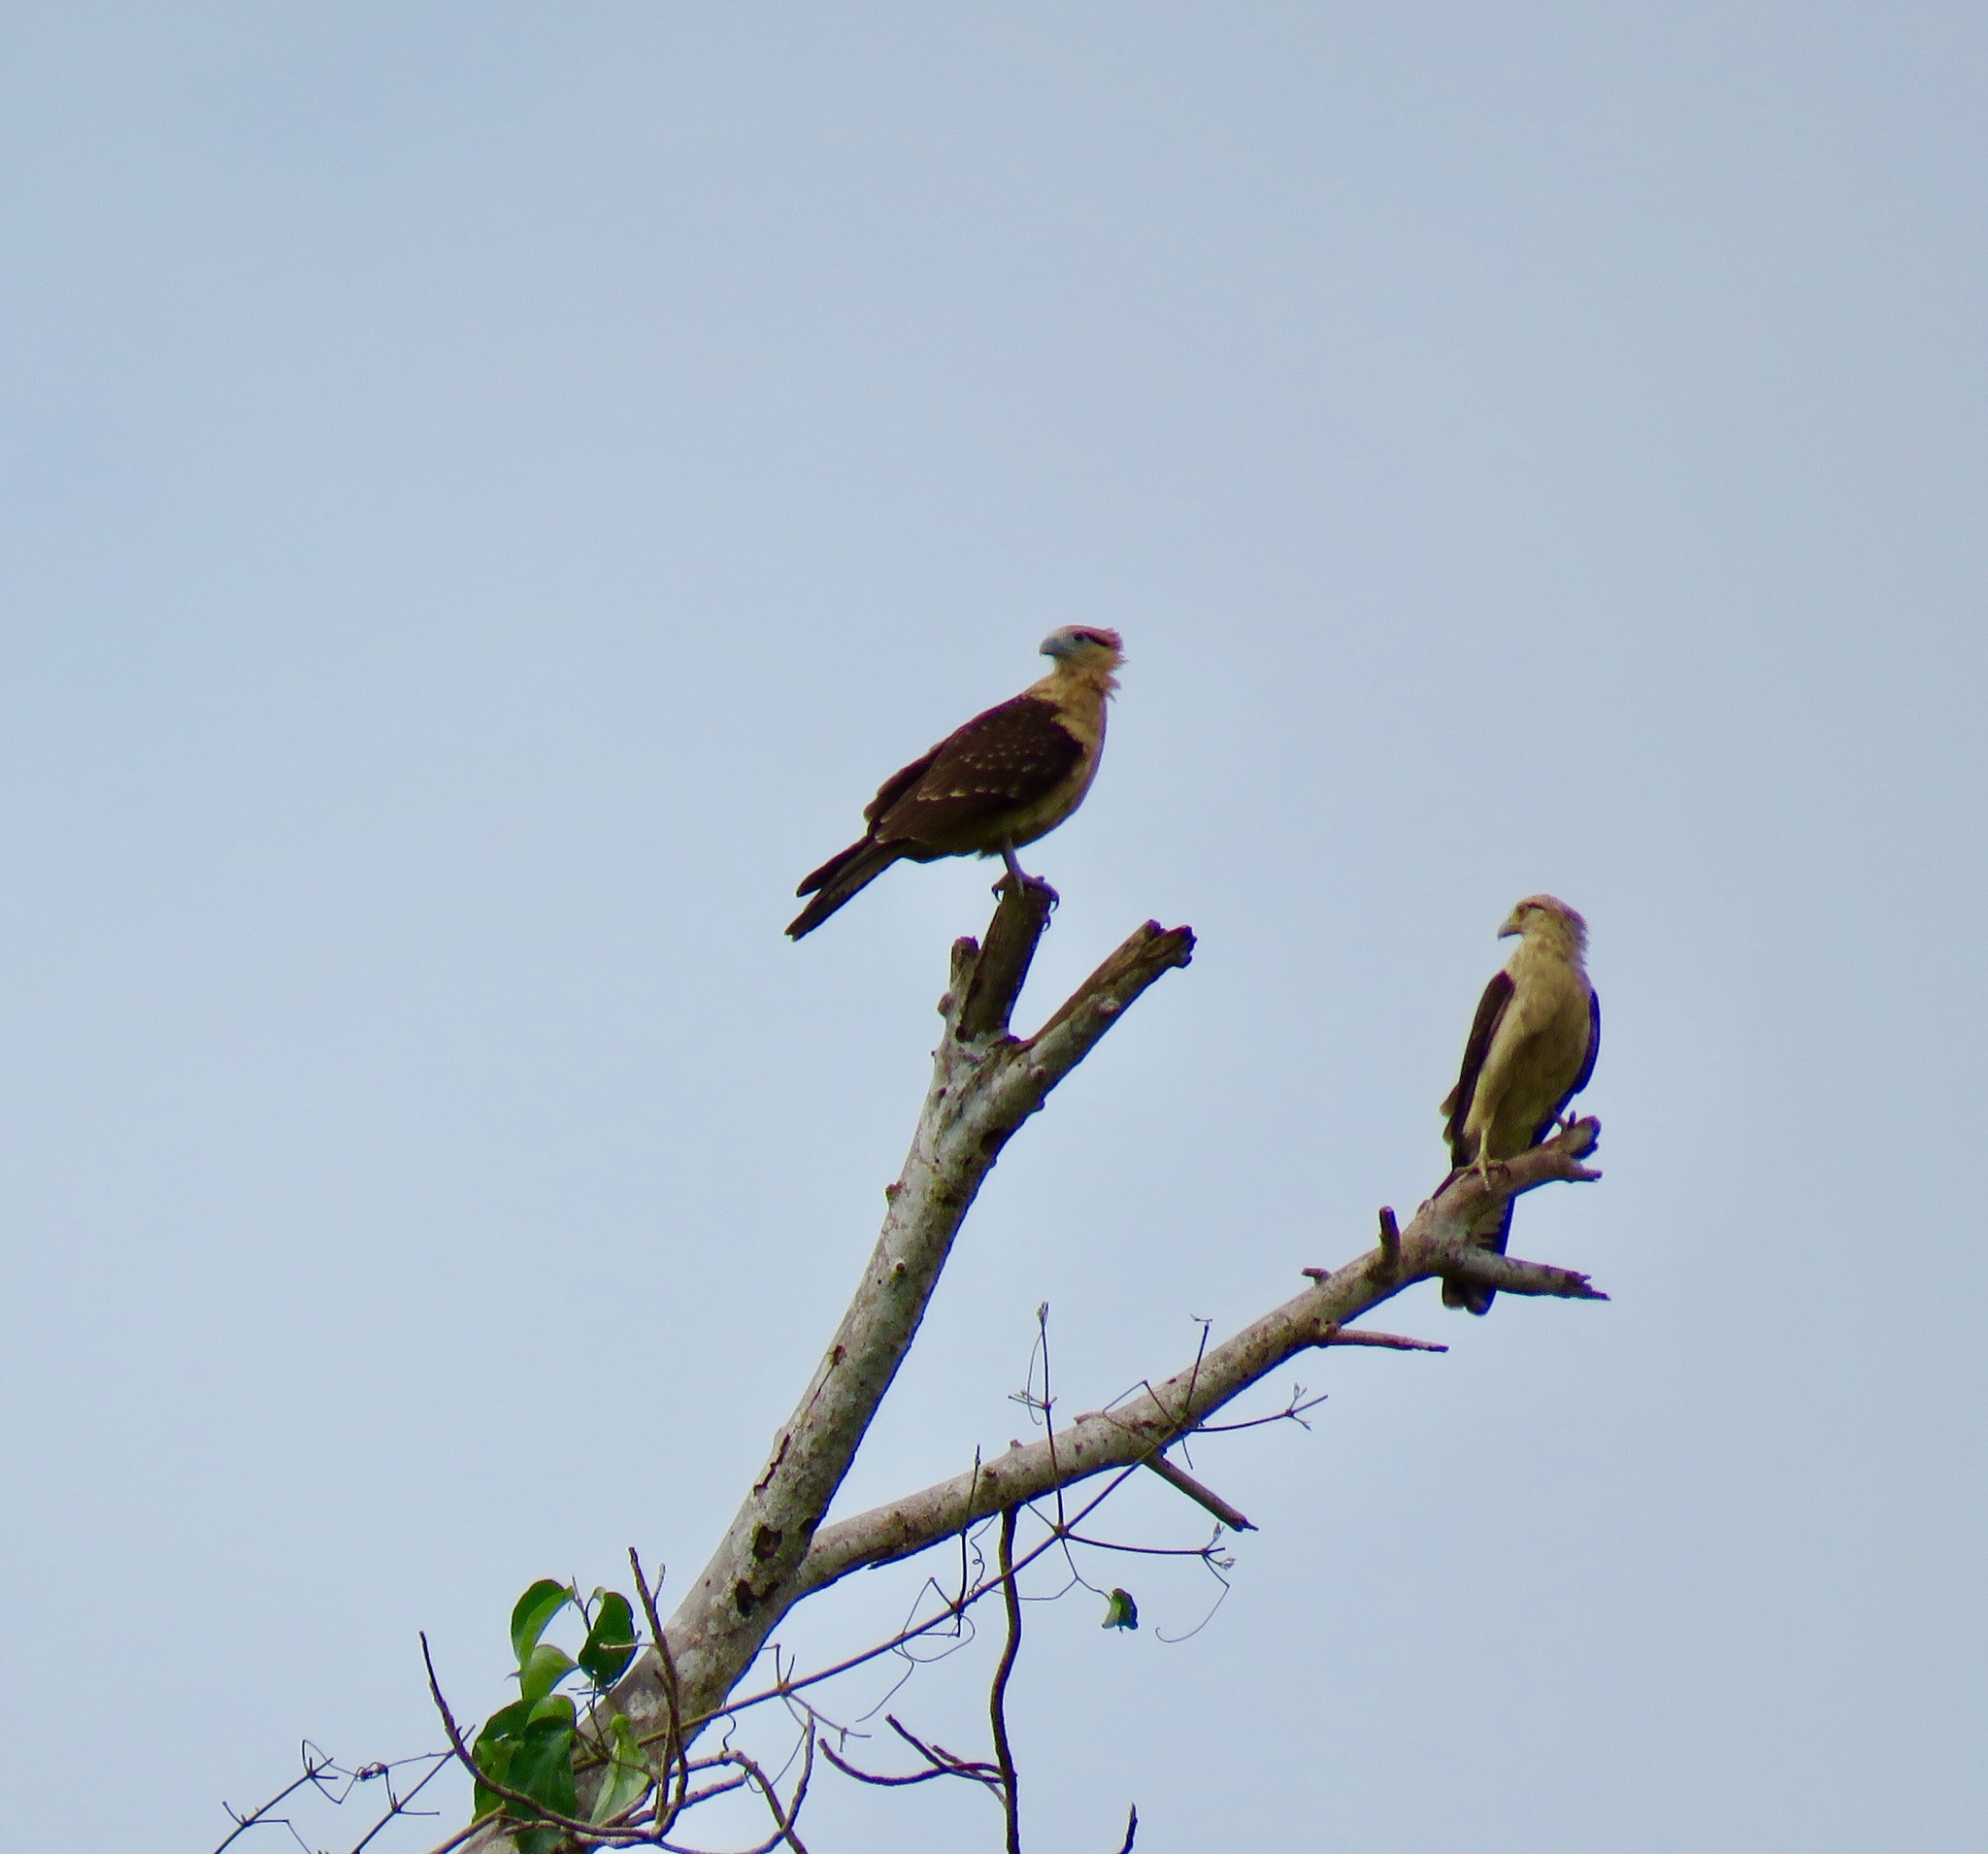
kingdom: Animalia
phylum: Chordata
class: Aves
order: Falconiformes
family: Falconidae
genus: Daptrius
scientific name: Daptrius
